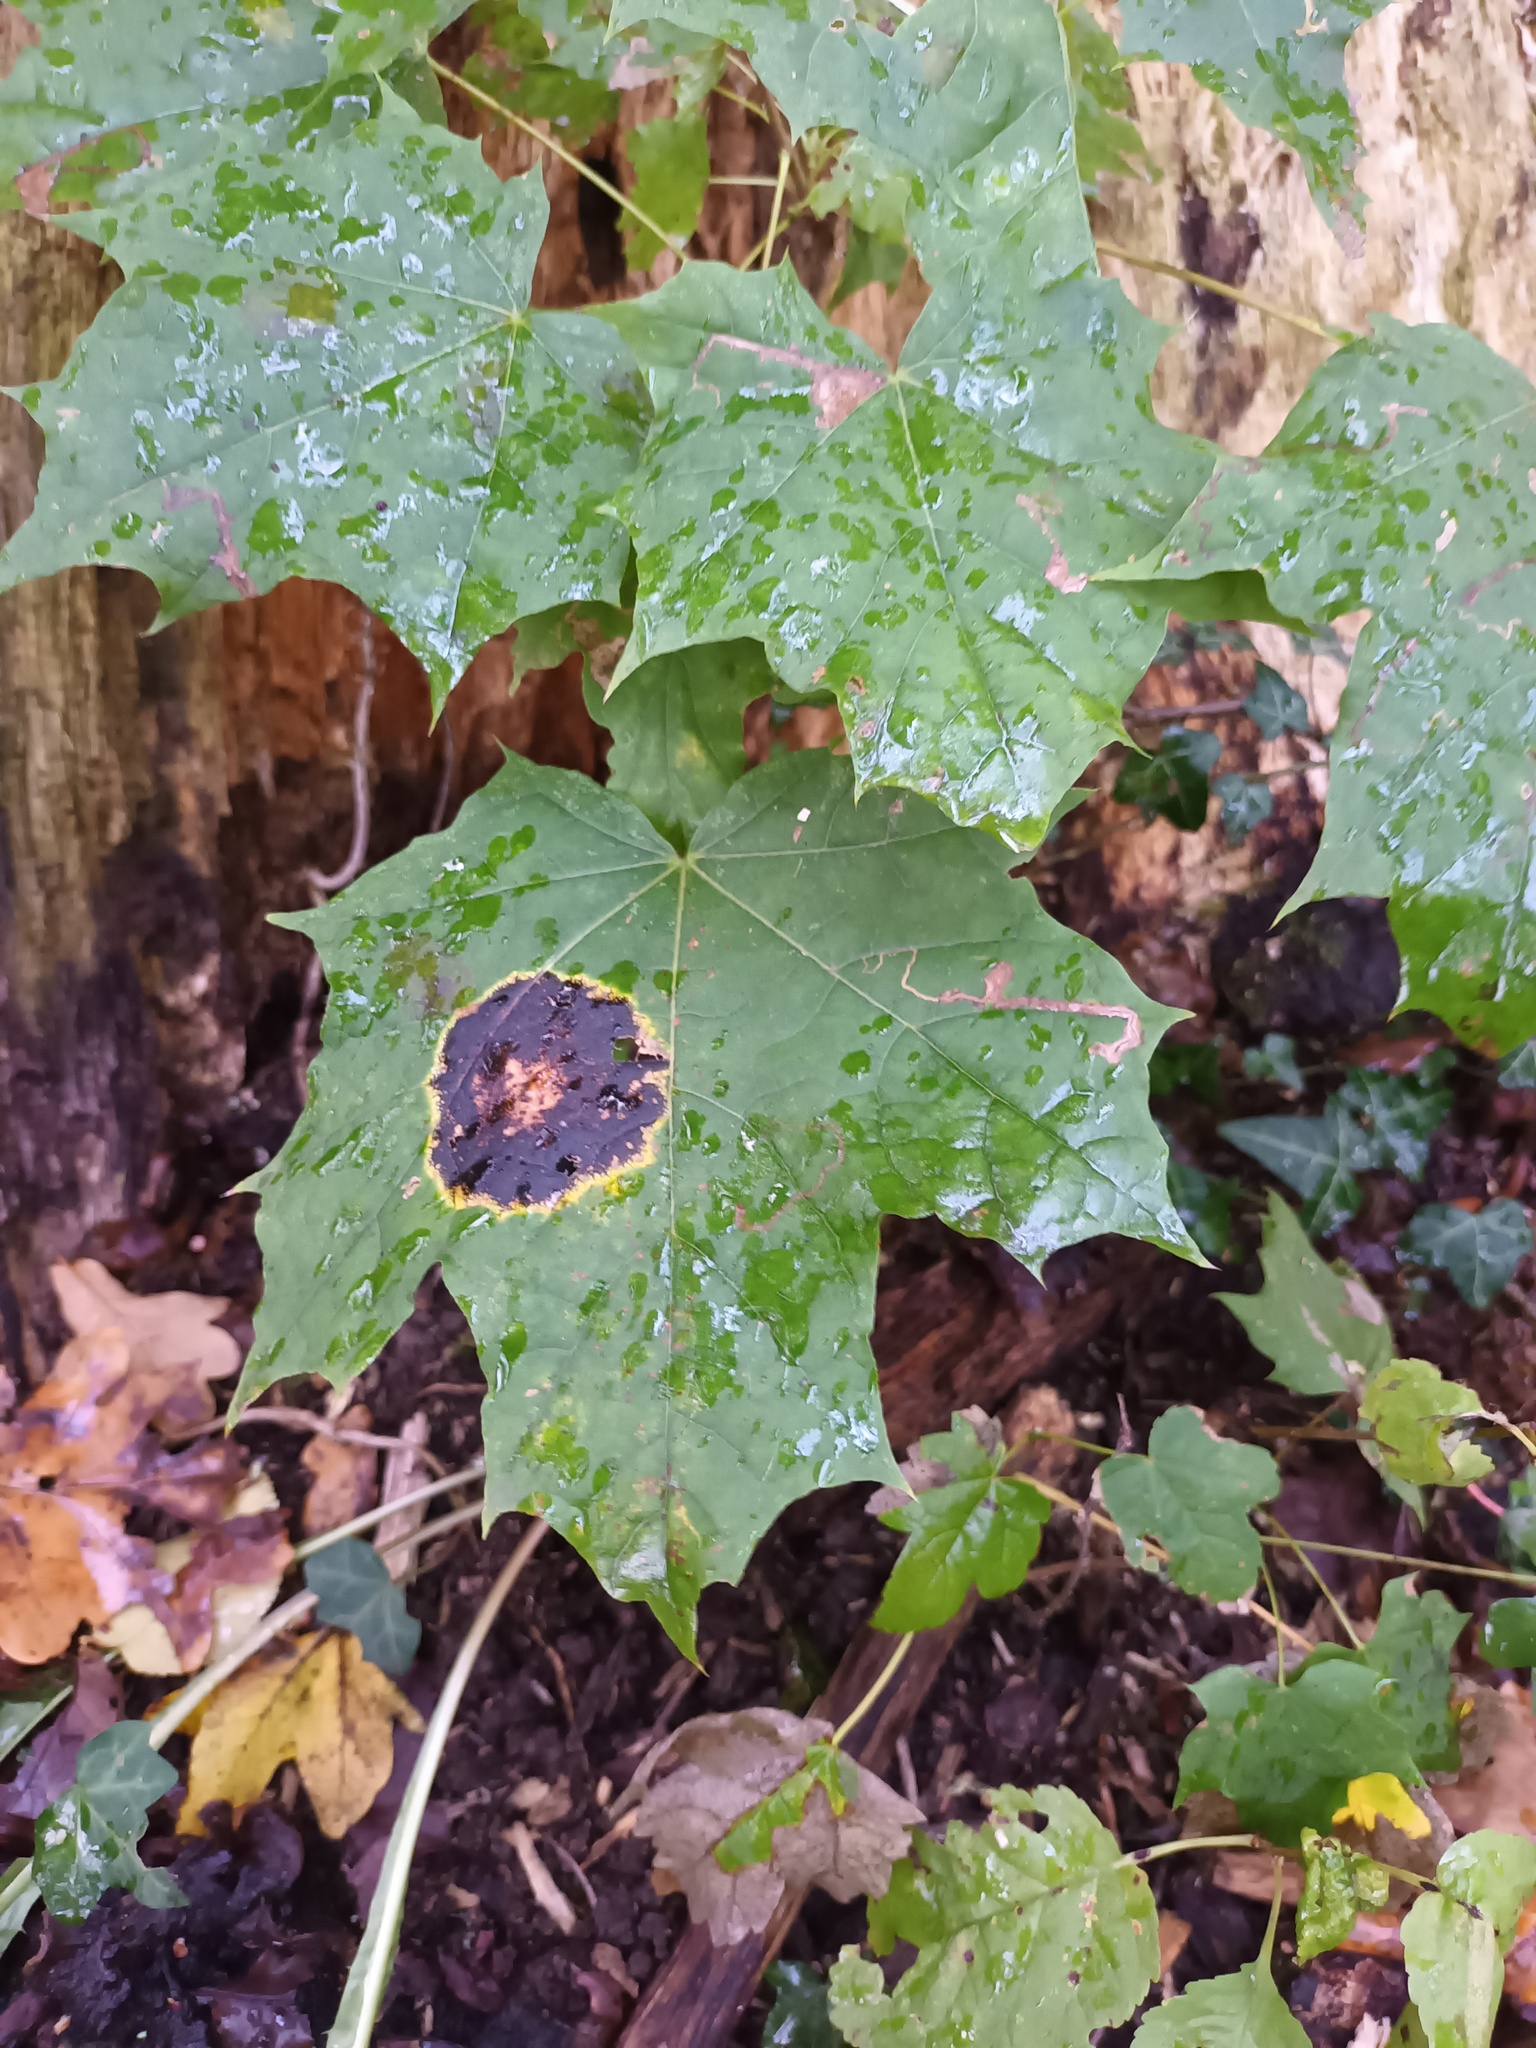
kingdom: Fungi
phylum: Ascomycota
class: Leotiomycetes
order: Rhytismatales
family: Rhytismataceae
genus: Rhytisma
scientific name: Rhytisma acerinum
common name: European tar spot
